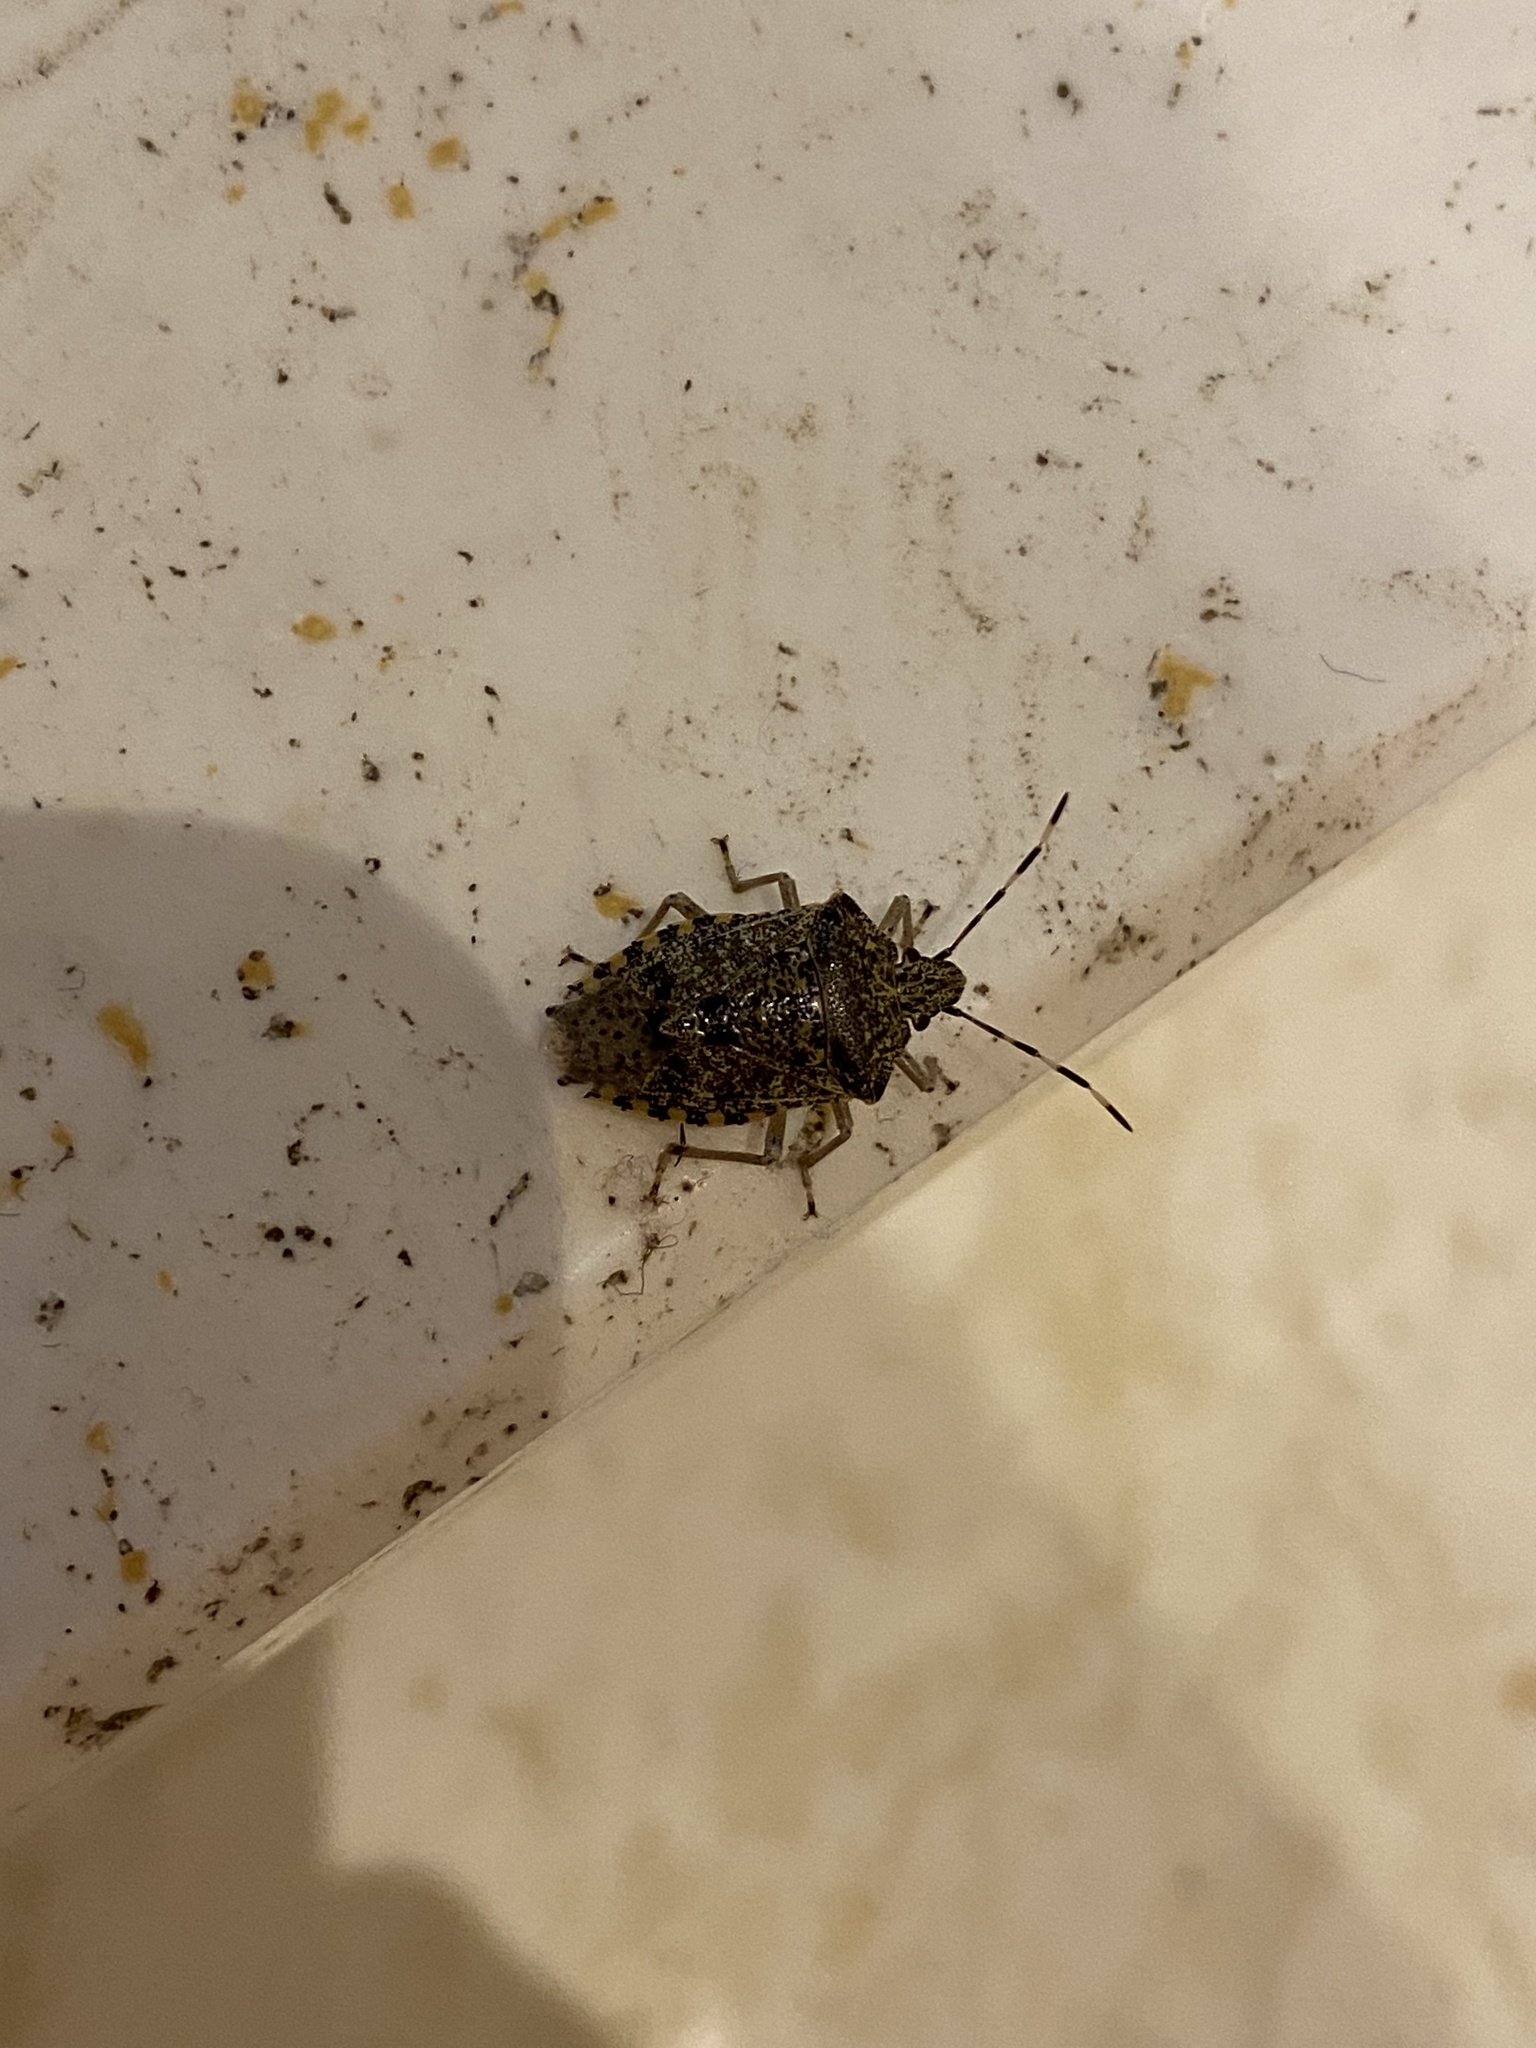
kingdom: Animalia
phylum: Arthropoda
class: Insecta
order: Hemiptera
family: Pentatomidae
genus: Rhaphigaster
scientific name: Rhaphigaster nebulosa
